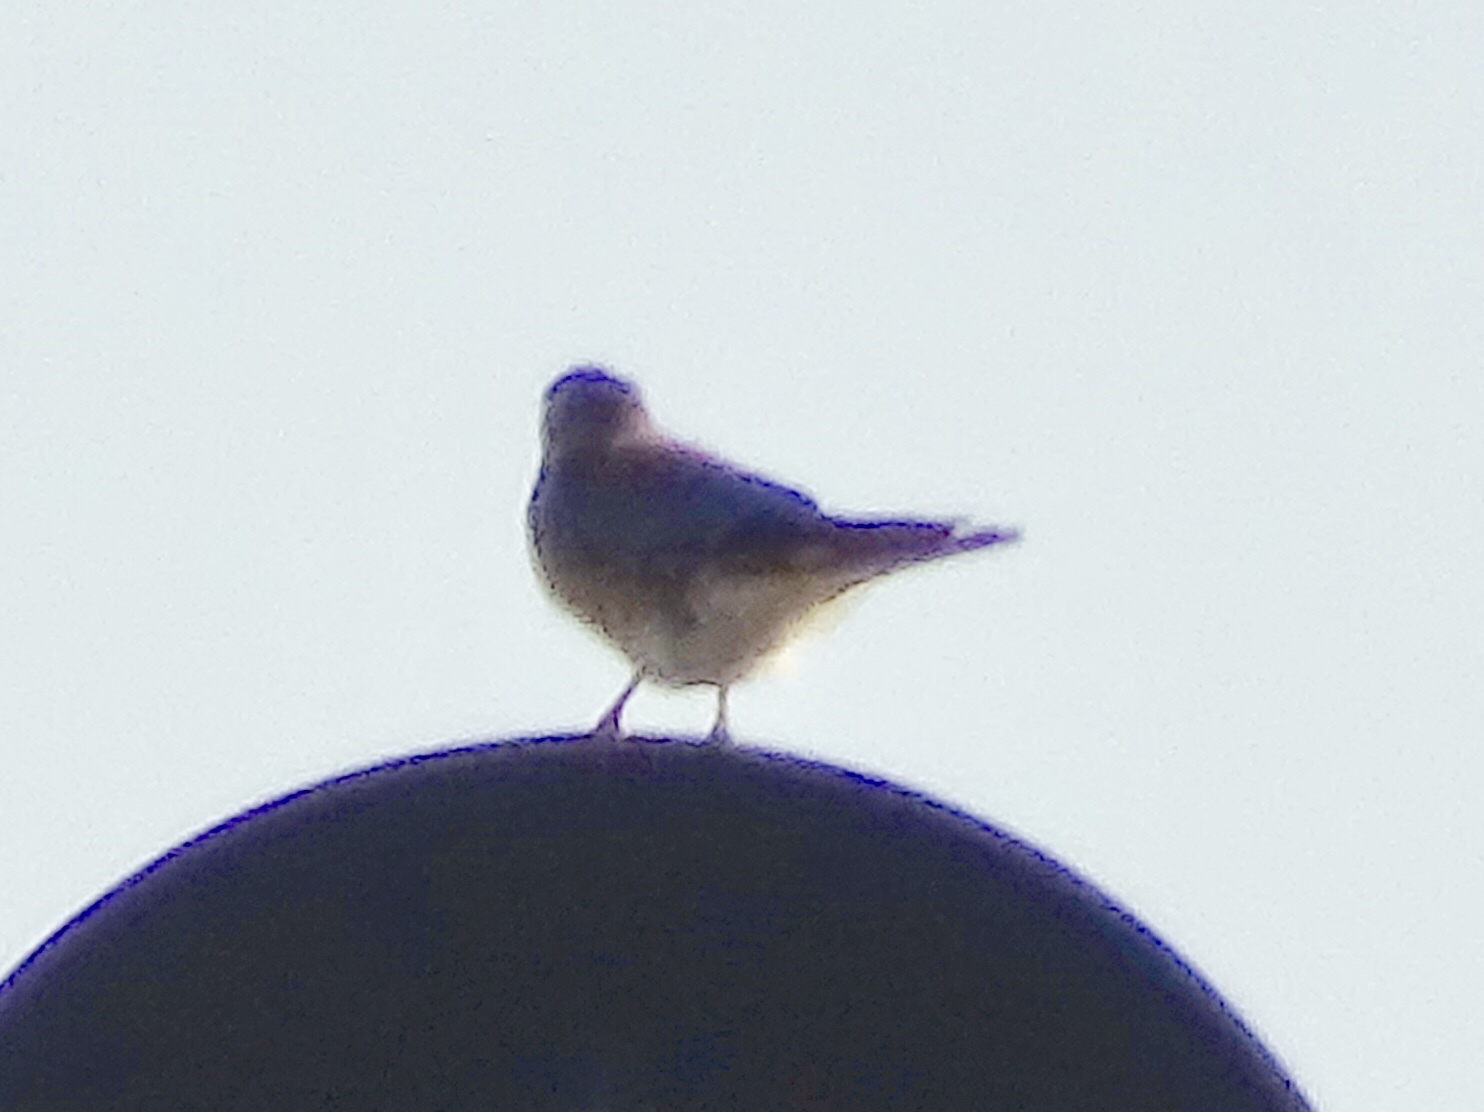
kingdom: Animalia
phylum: Chordata
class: Aves
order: Falconiformes
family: Falconidae
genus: Falco
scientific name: Falco sparverius
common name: American kestrel
